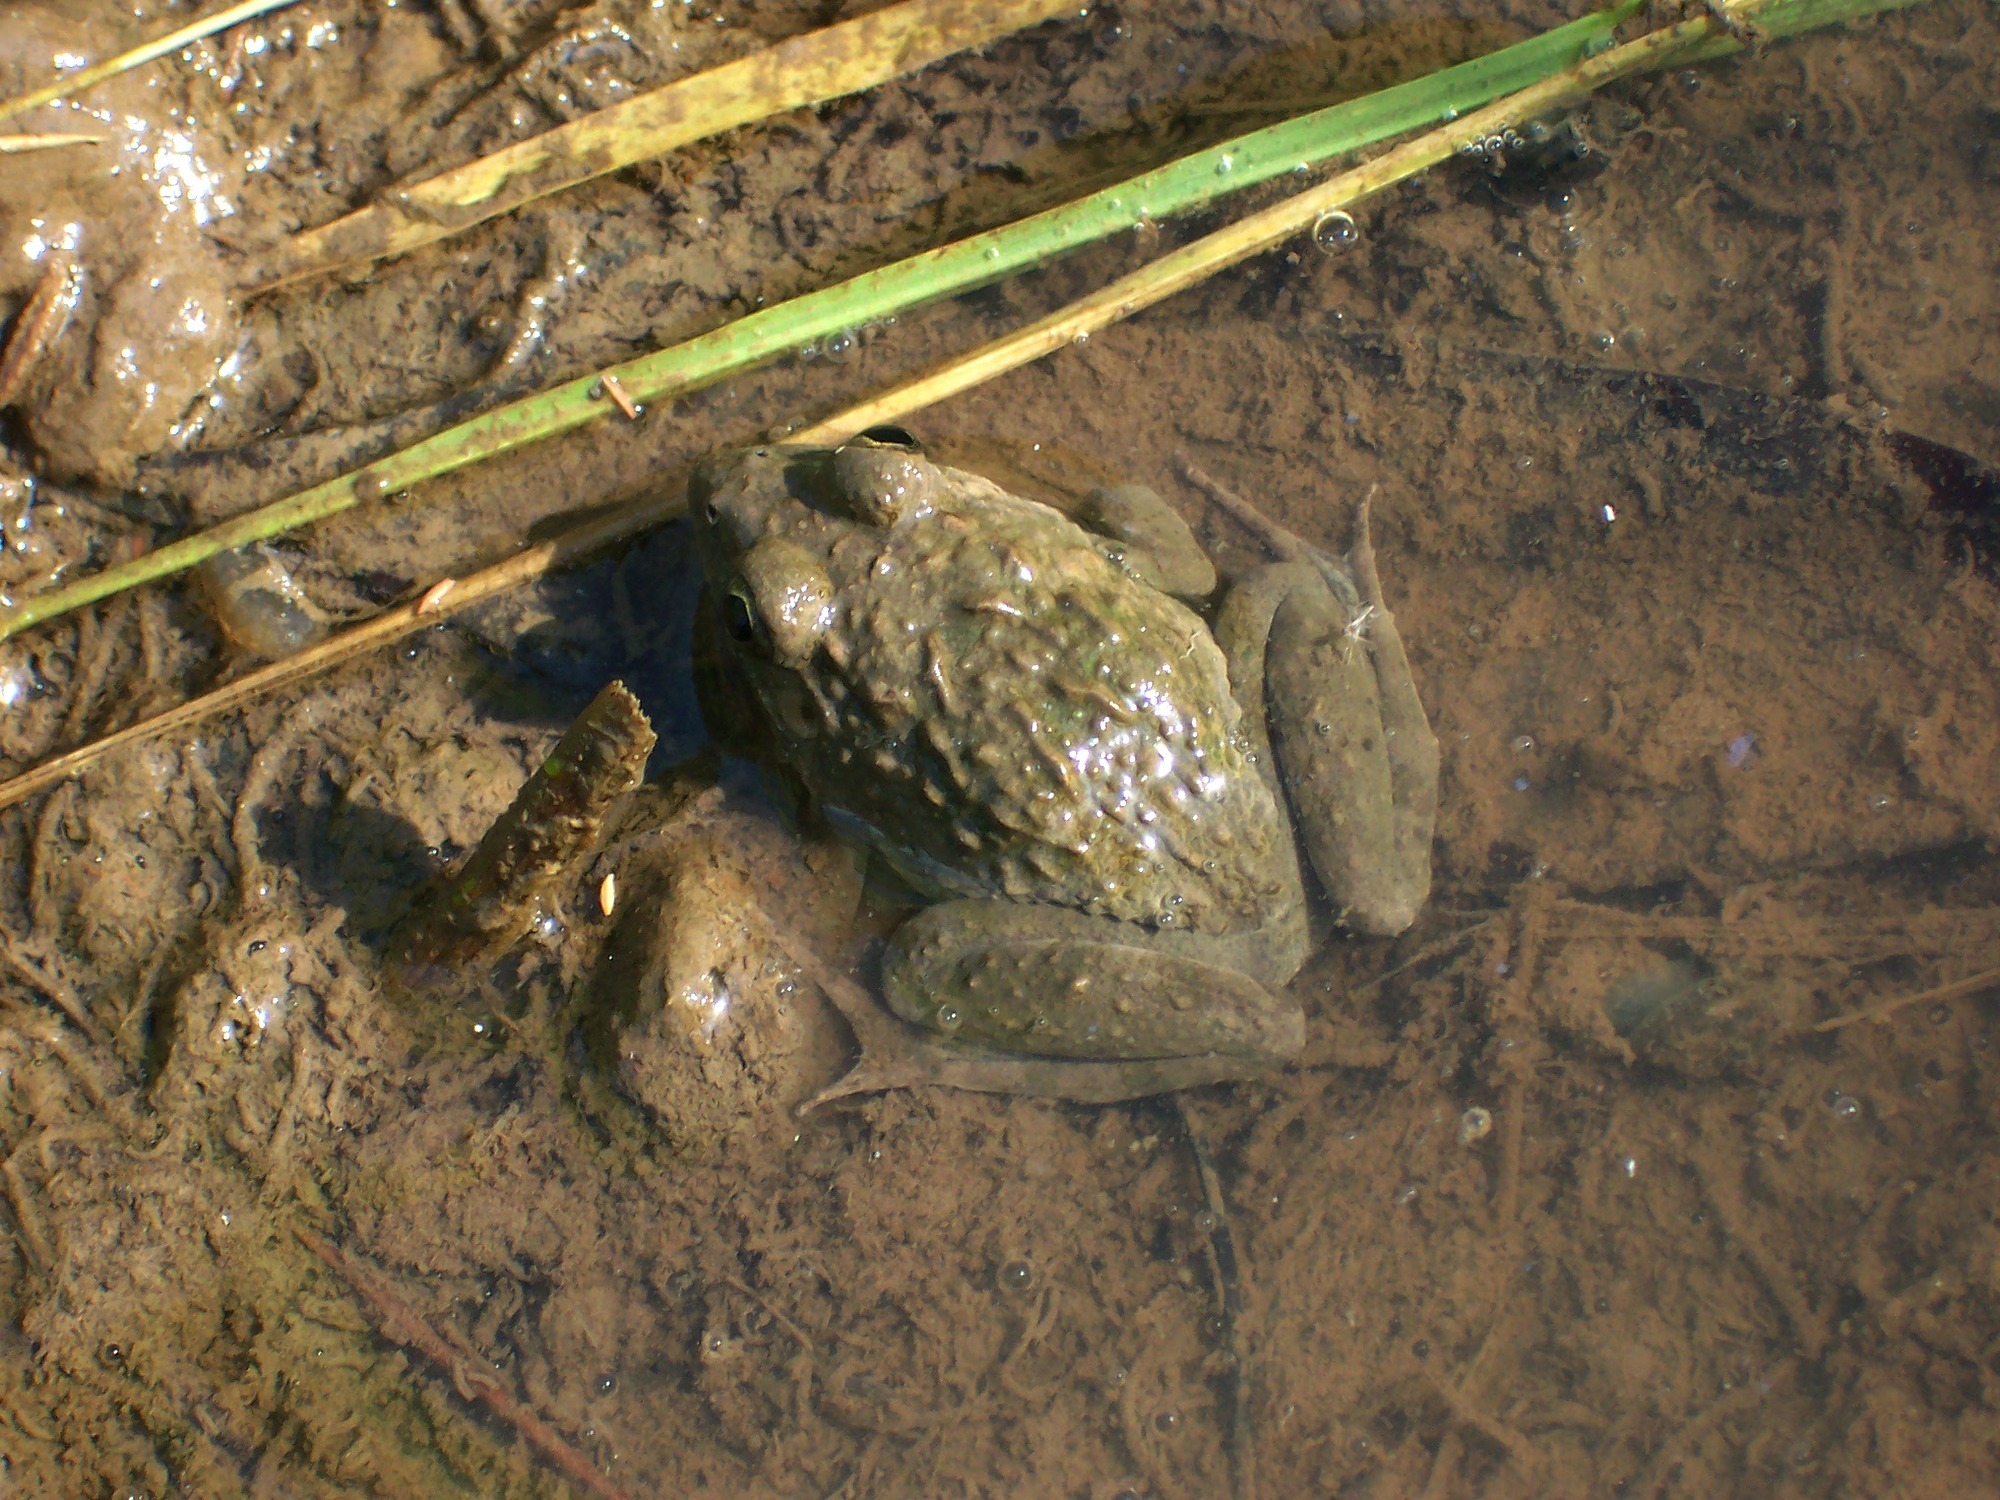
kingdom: Animalia
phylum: Chordata
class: Amphibia
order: Anura
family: Dicroglossidae
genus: Fejervarya
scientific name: Fejervarya limnocharis
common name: Asian grass frog/common pond frog/field frog/grass frog/indian rice frog
